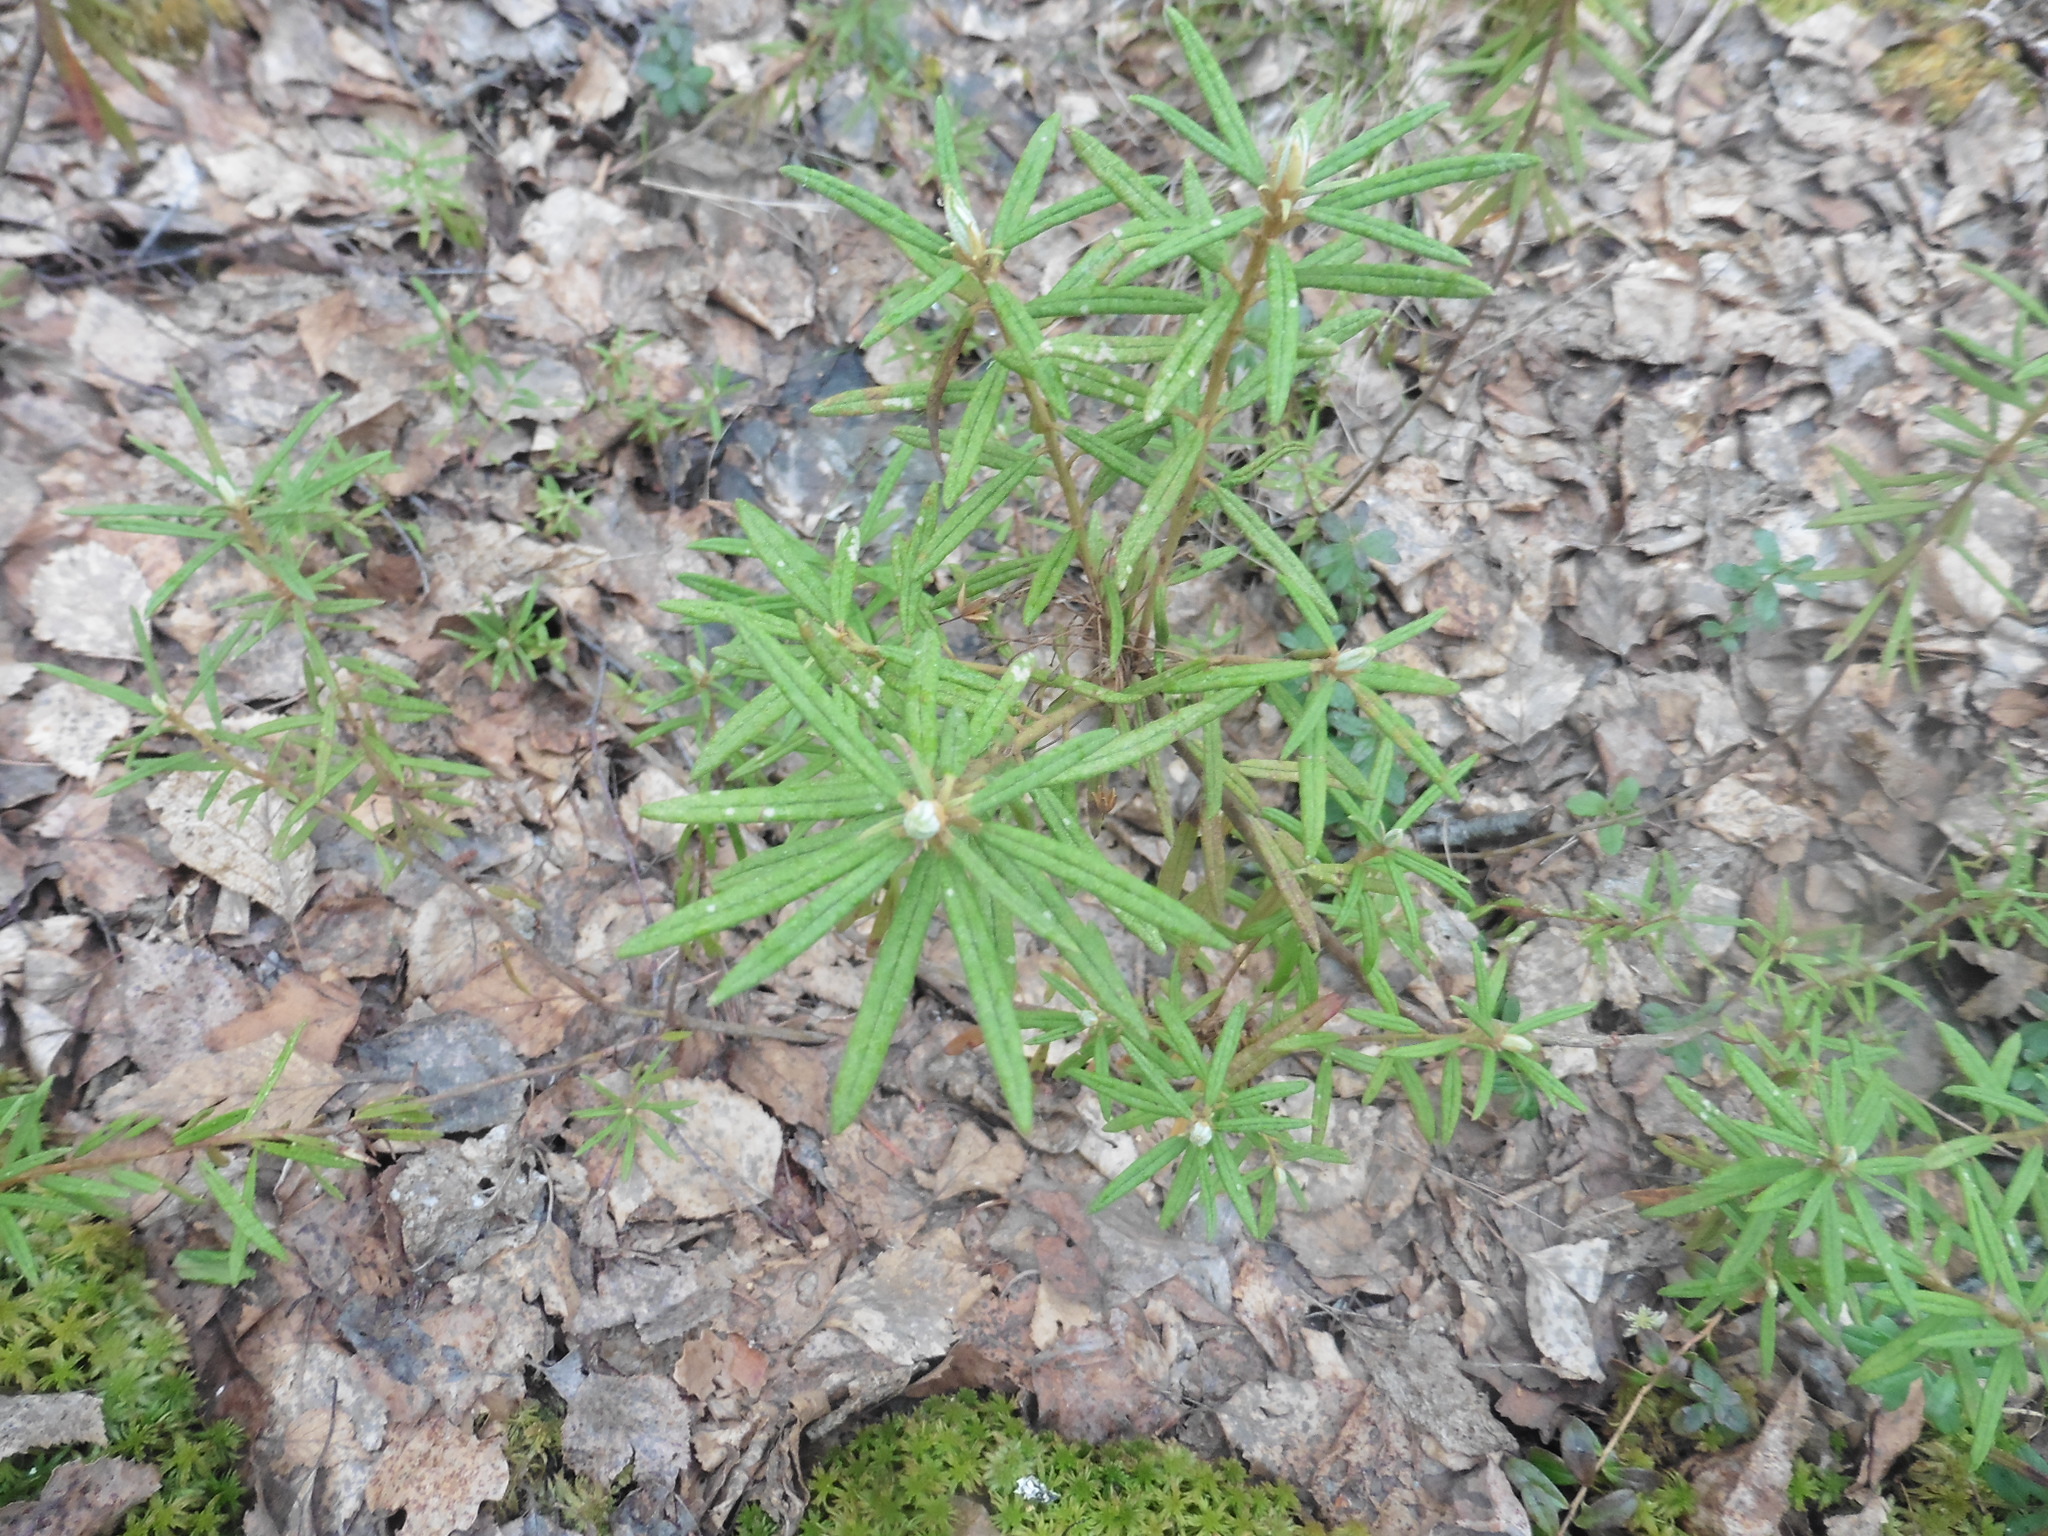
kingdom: Plantae
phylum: Tracheophyta
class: Magnoliopsida
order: Ericales
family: Ericaceae
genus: Rhododendron
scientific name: Rhododendron tomentosum
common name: Marsh labrador tea
